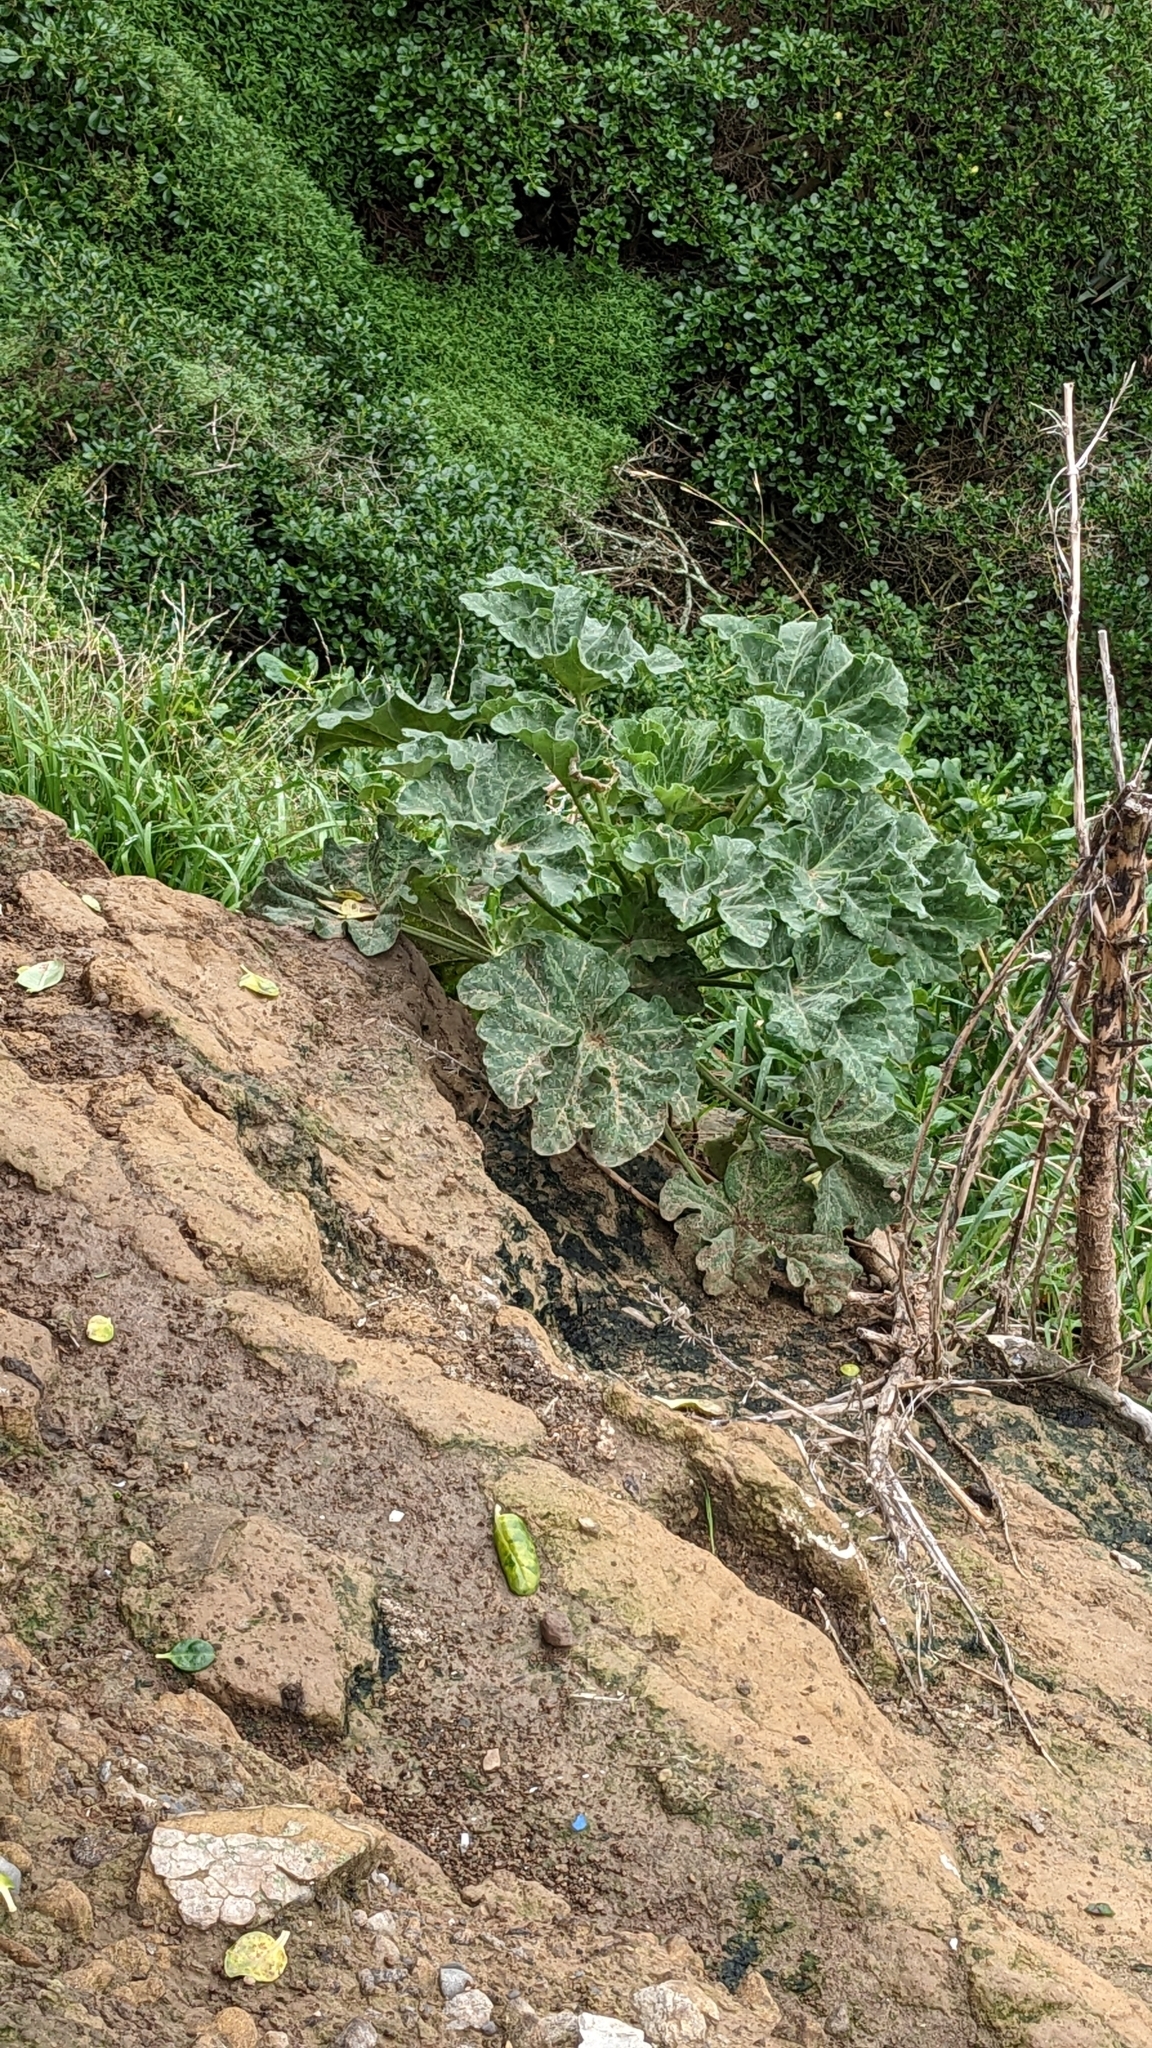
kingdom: Plantae
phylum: Tracheophyta
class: Magnoliopsida
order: Malvales
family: Malvaceae
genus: Malva
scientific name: Malva arborea
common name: Tree mallow
